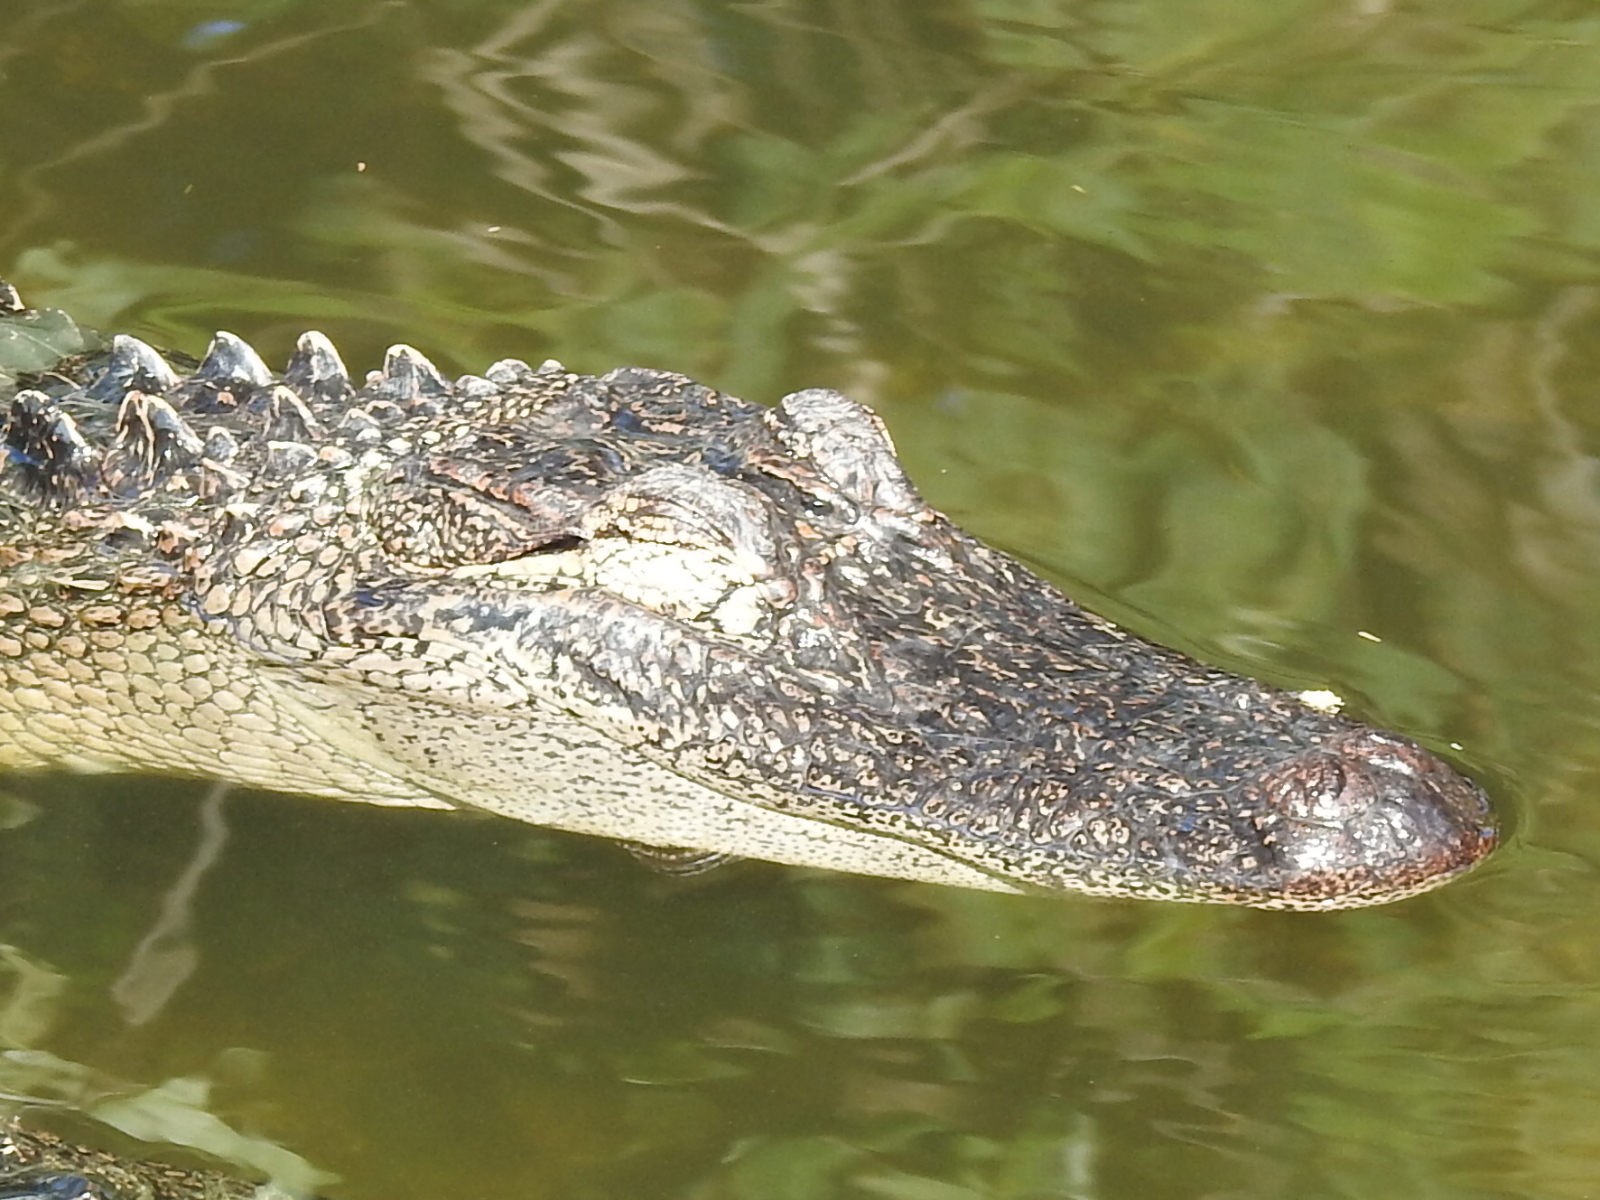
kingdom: Animalia
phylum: Chordata
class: Crocodylia
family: Alligatoridae
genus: Alligator
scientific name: Alligator mississippiensis
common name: American alligator
